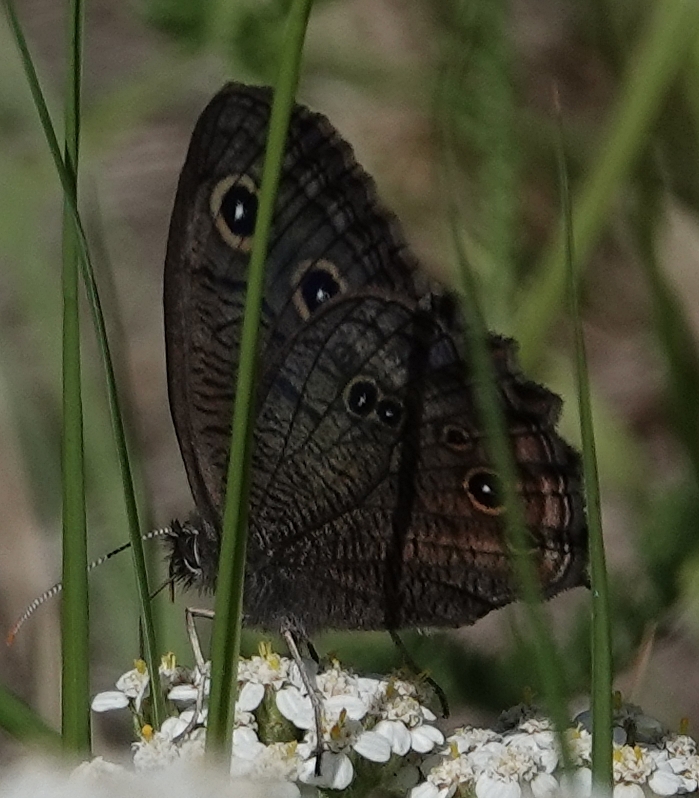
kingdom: Animalia
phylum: Arthropoda
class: Insecta
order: Lepidoptera
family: Nymphalidae
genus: Cercyonis
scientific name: Cercyonis pegala
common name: Common wood-nymph
